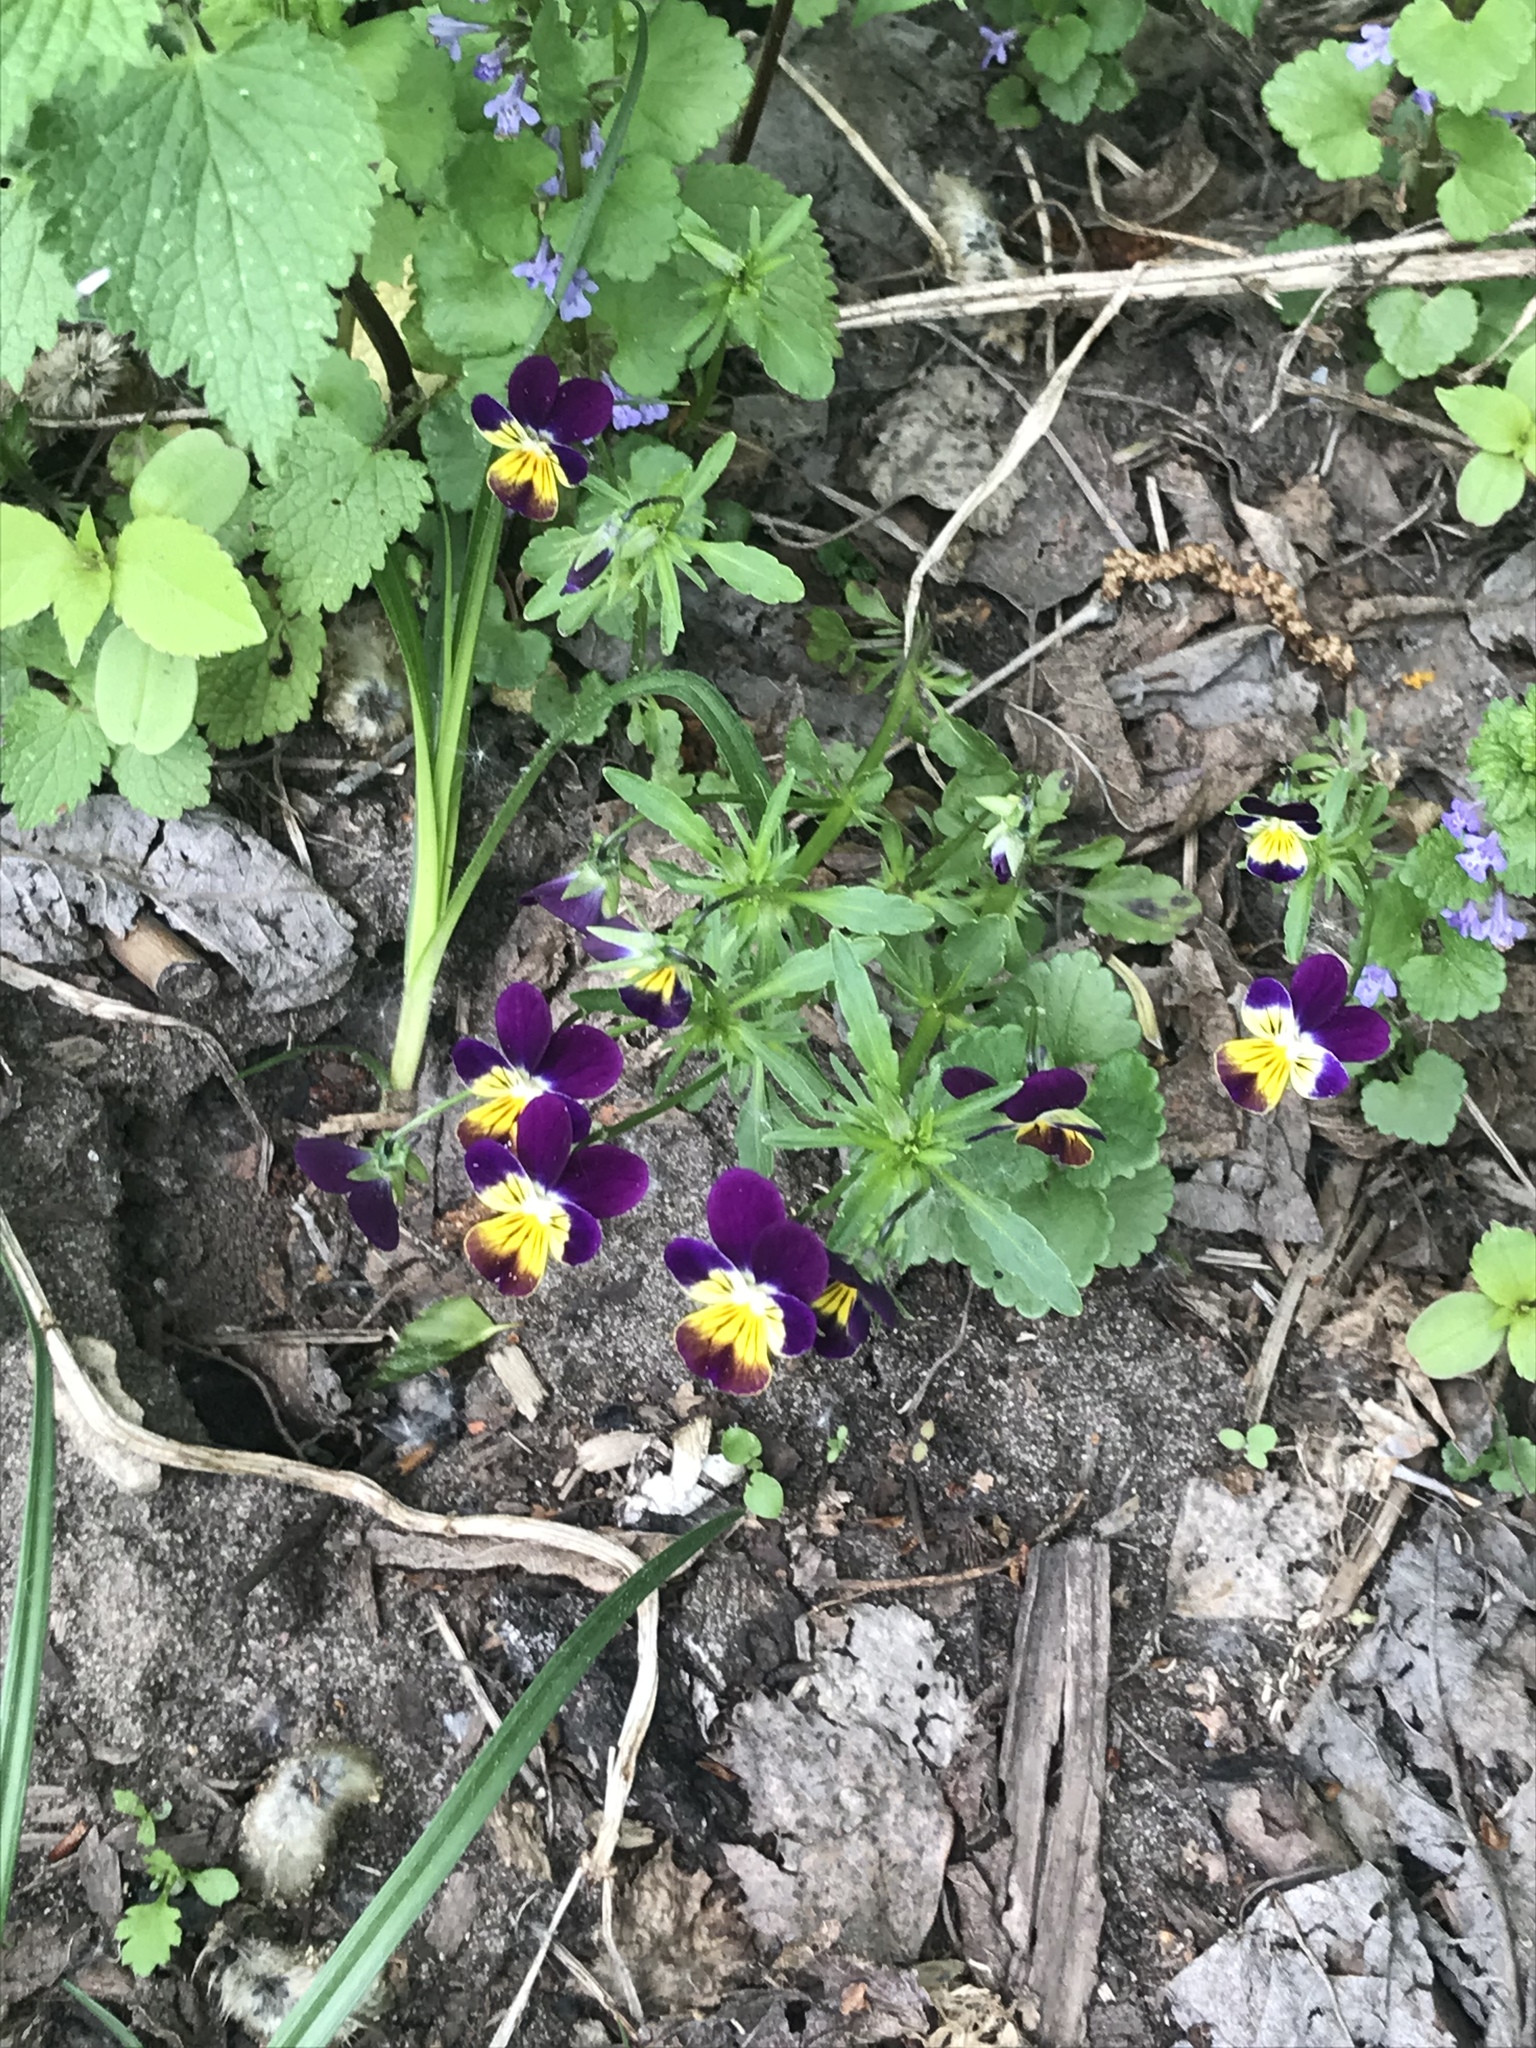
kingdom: Plantae
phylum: Tracheophyta
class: Magnoliopsida
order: Malpighiales
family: Violaceae
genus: Viola
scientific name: Viola wittrockiana
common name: Garden pansy
